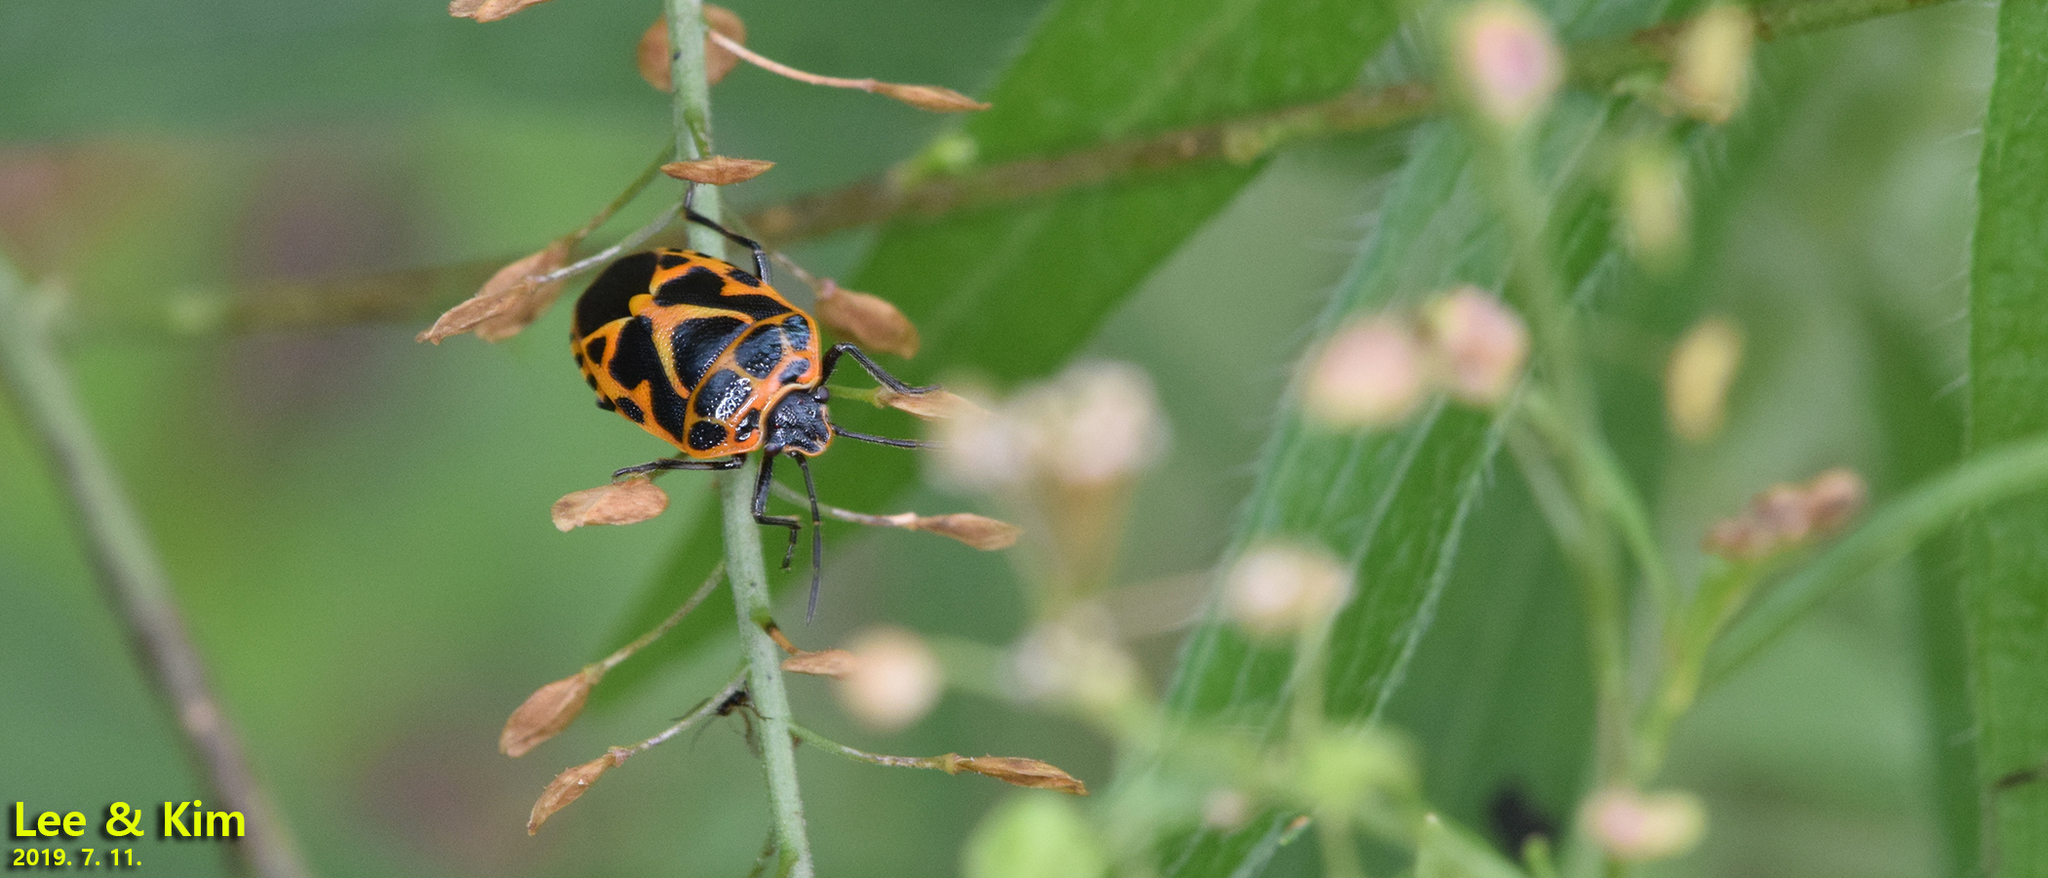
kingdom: Animalia
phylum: Arthropoda
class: Insecta
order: Hemiptera
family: Pentatomidae
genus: Eurydema
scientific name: Eurydema dominulus
